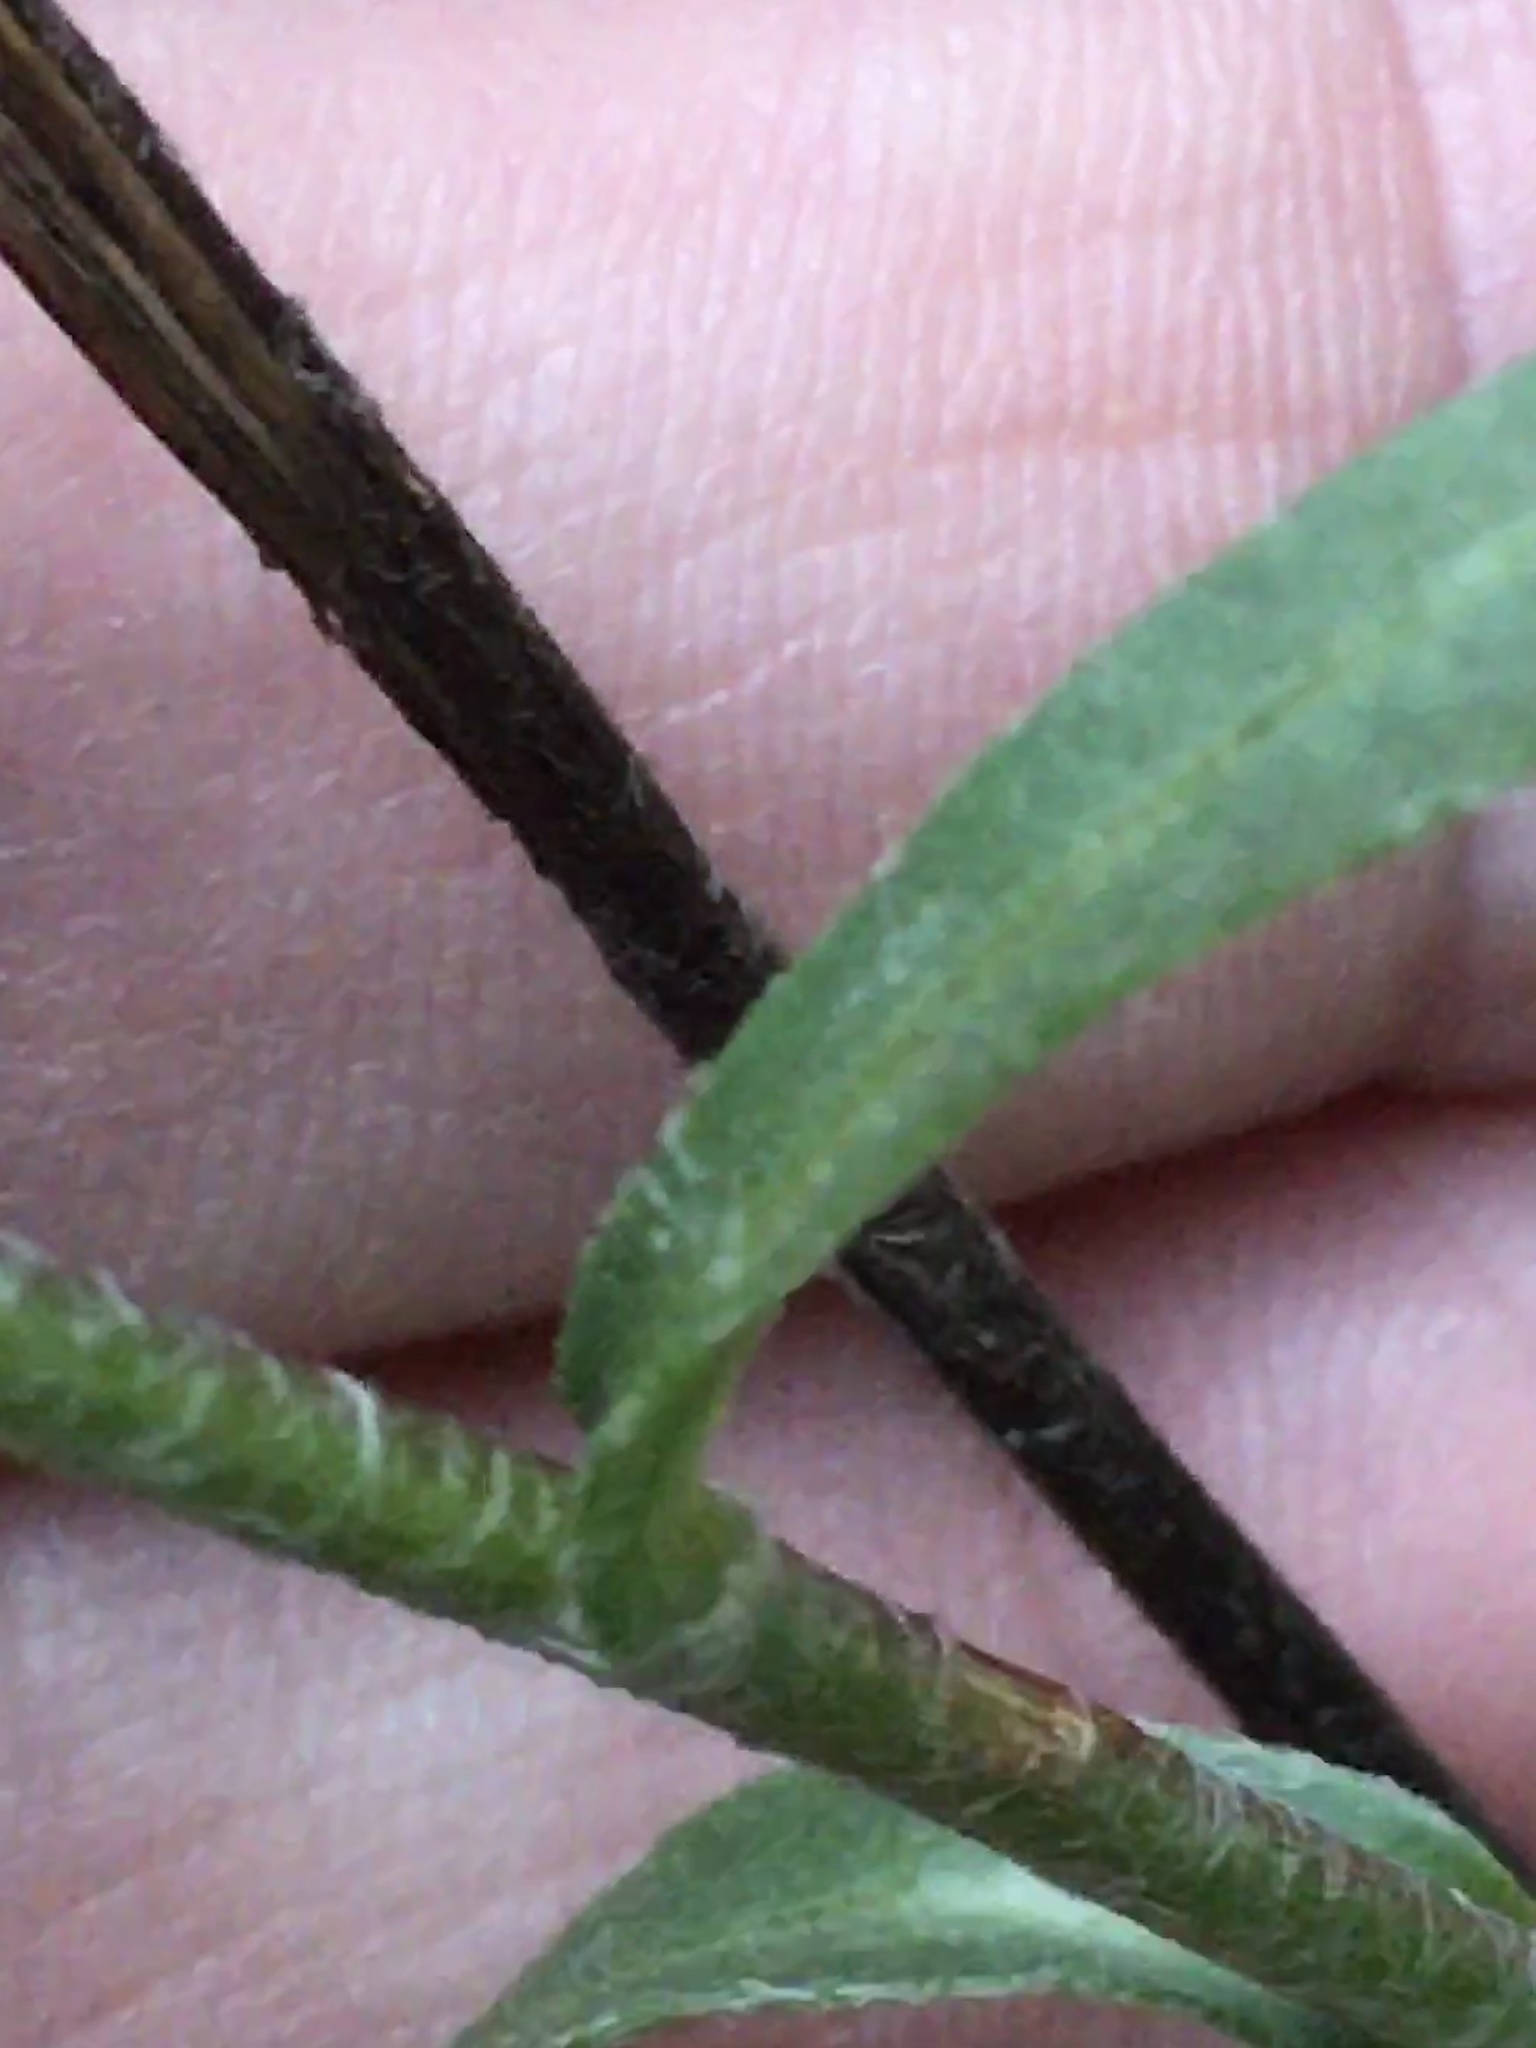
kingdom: Plantae
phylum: Tracheophyta
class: Magnoliopsida
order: Asterales
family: Asteraceae
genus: Chrysopsis
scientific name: Chrysopsis mariana
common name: Maryland golden-aster
